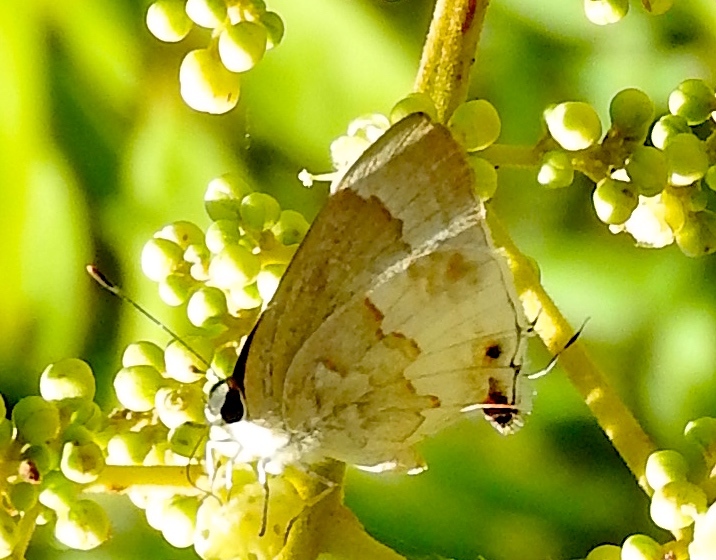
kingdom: Animalia
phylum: Arthropoda
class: Insecta
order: Lepidoptera
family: Lycaenidae
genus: Strymon
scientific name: Strymon albata
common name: White scrub-hairstreak
